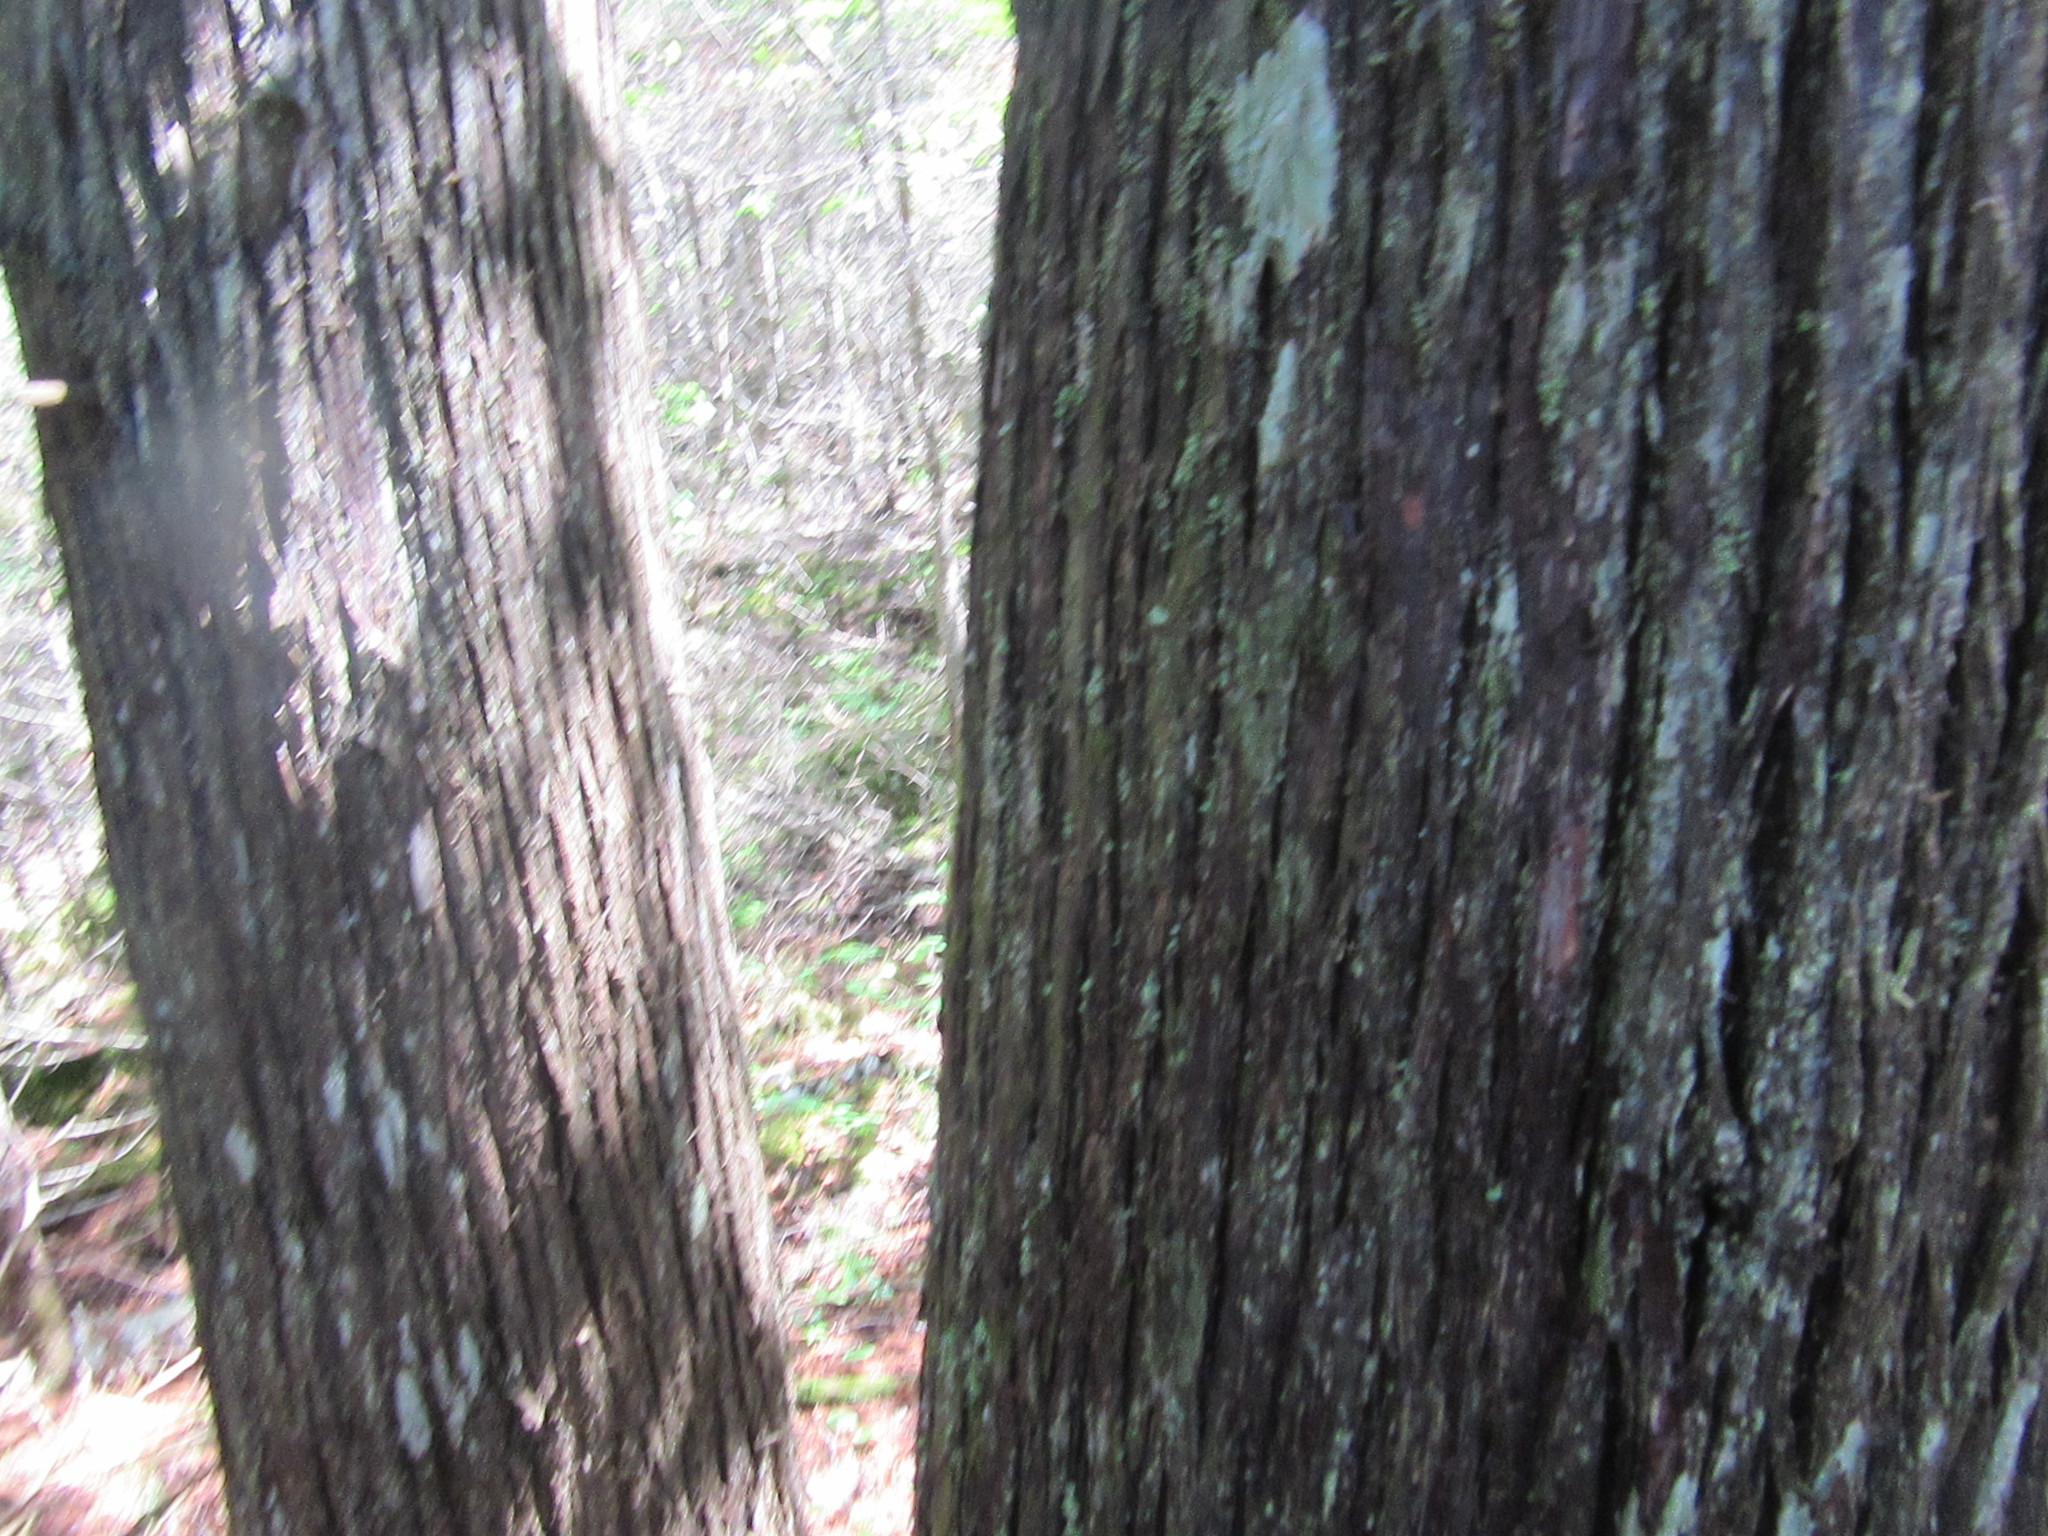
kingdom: Plantae
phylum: Tracheophyta
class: Pinopsida
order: Pinales
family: Cupressaceae
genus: Thuja
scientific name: Thuja occidentalis
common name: Northern white-cedar
